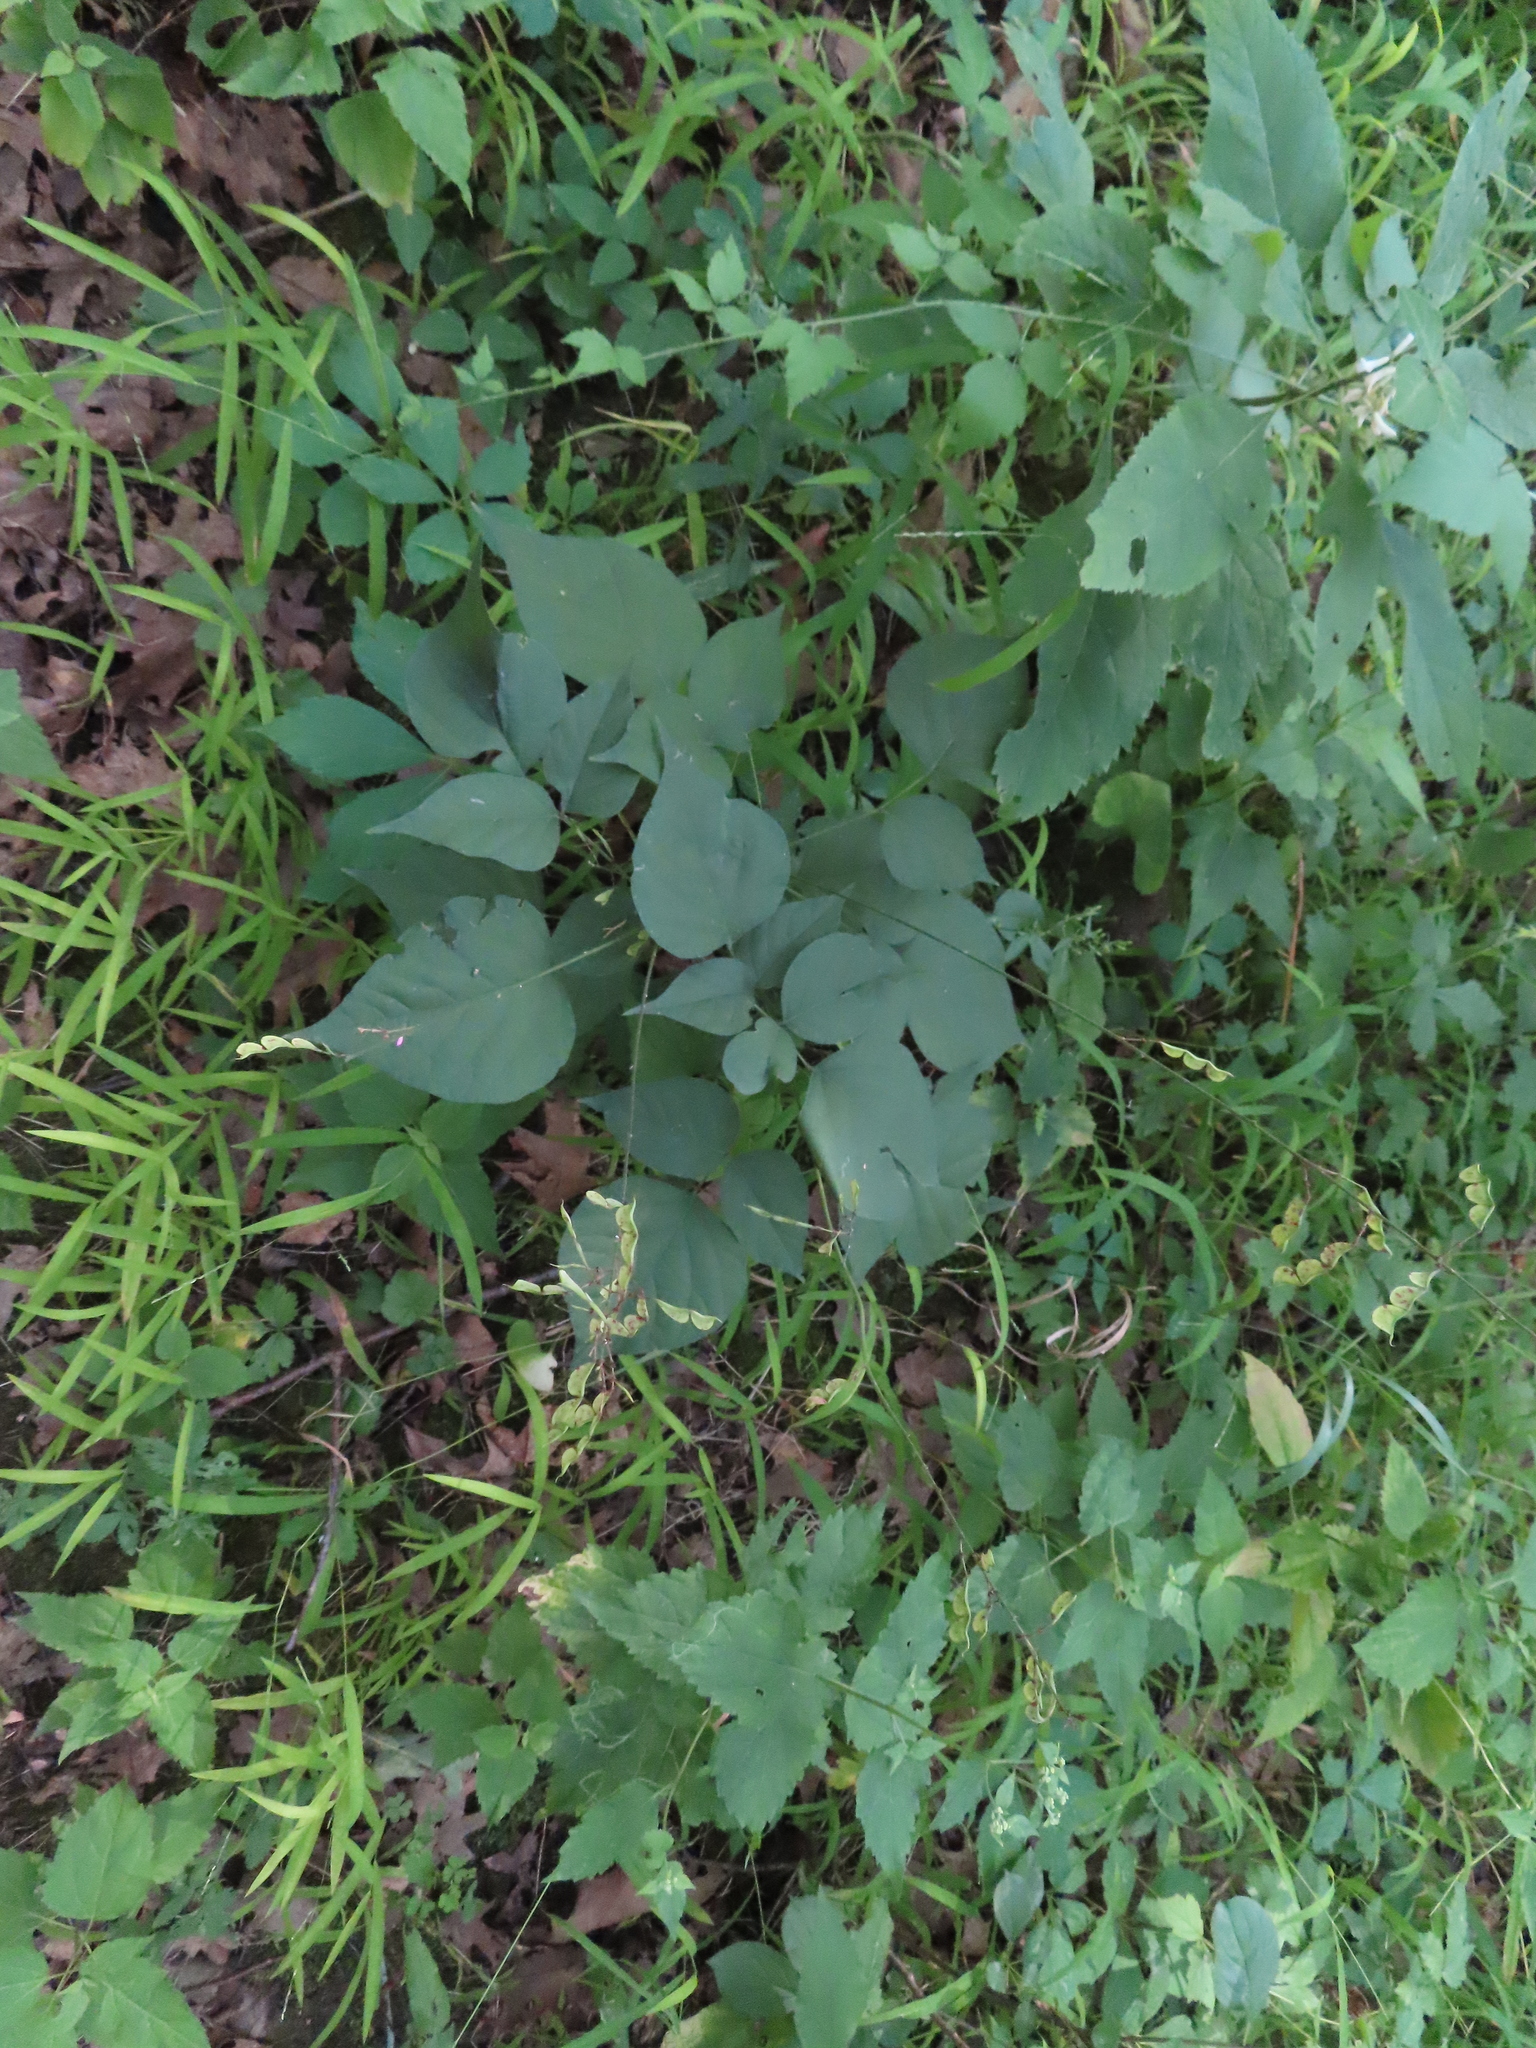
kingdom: Plantae
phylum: Tracheophyta
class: Magnoliopsida
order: Fabales
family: Fabaceae
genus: Hylodesmum
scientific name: Hylodesmum glutinosum
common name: Clustered-leaved tick-trefoil
